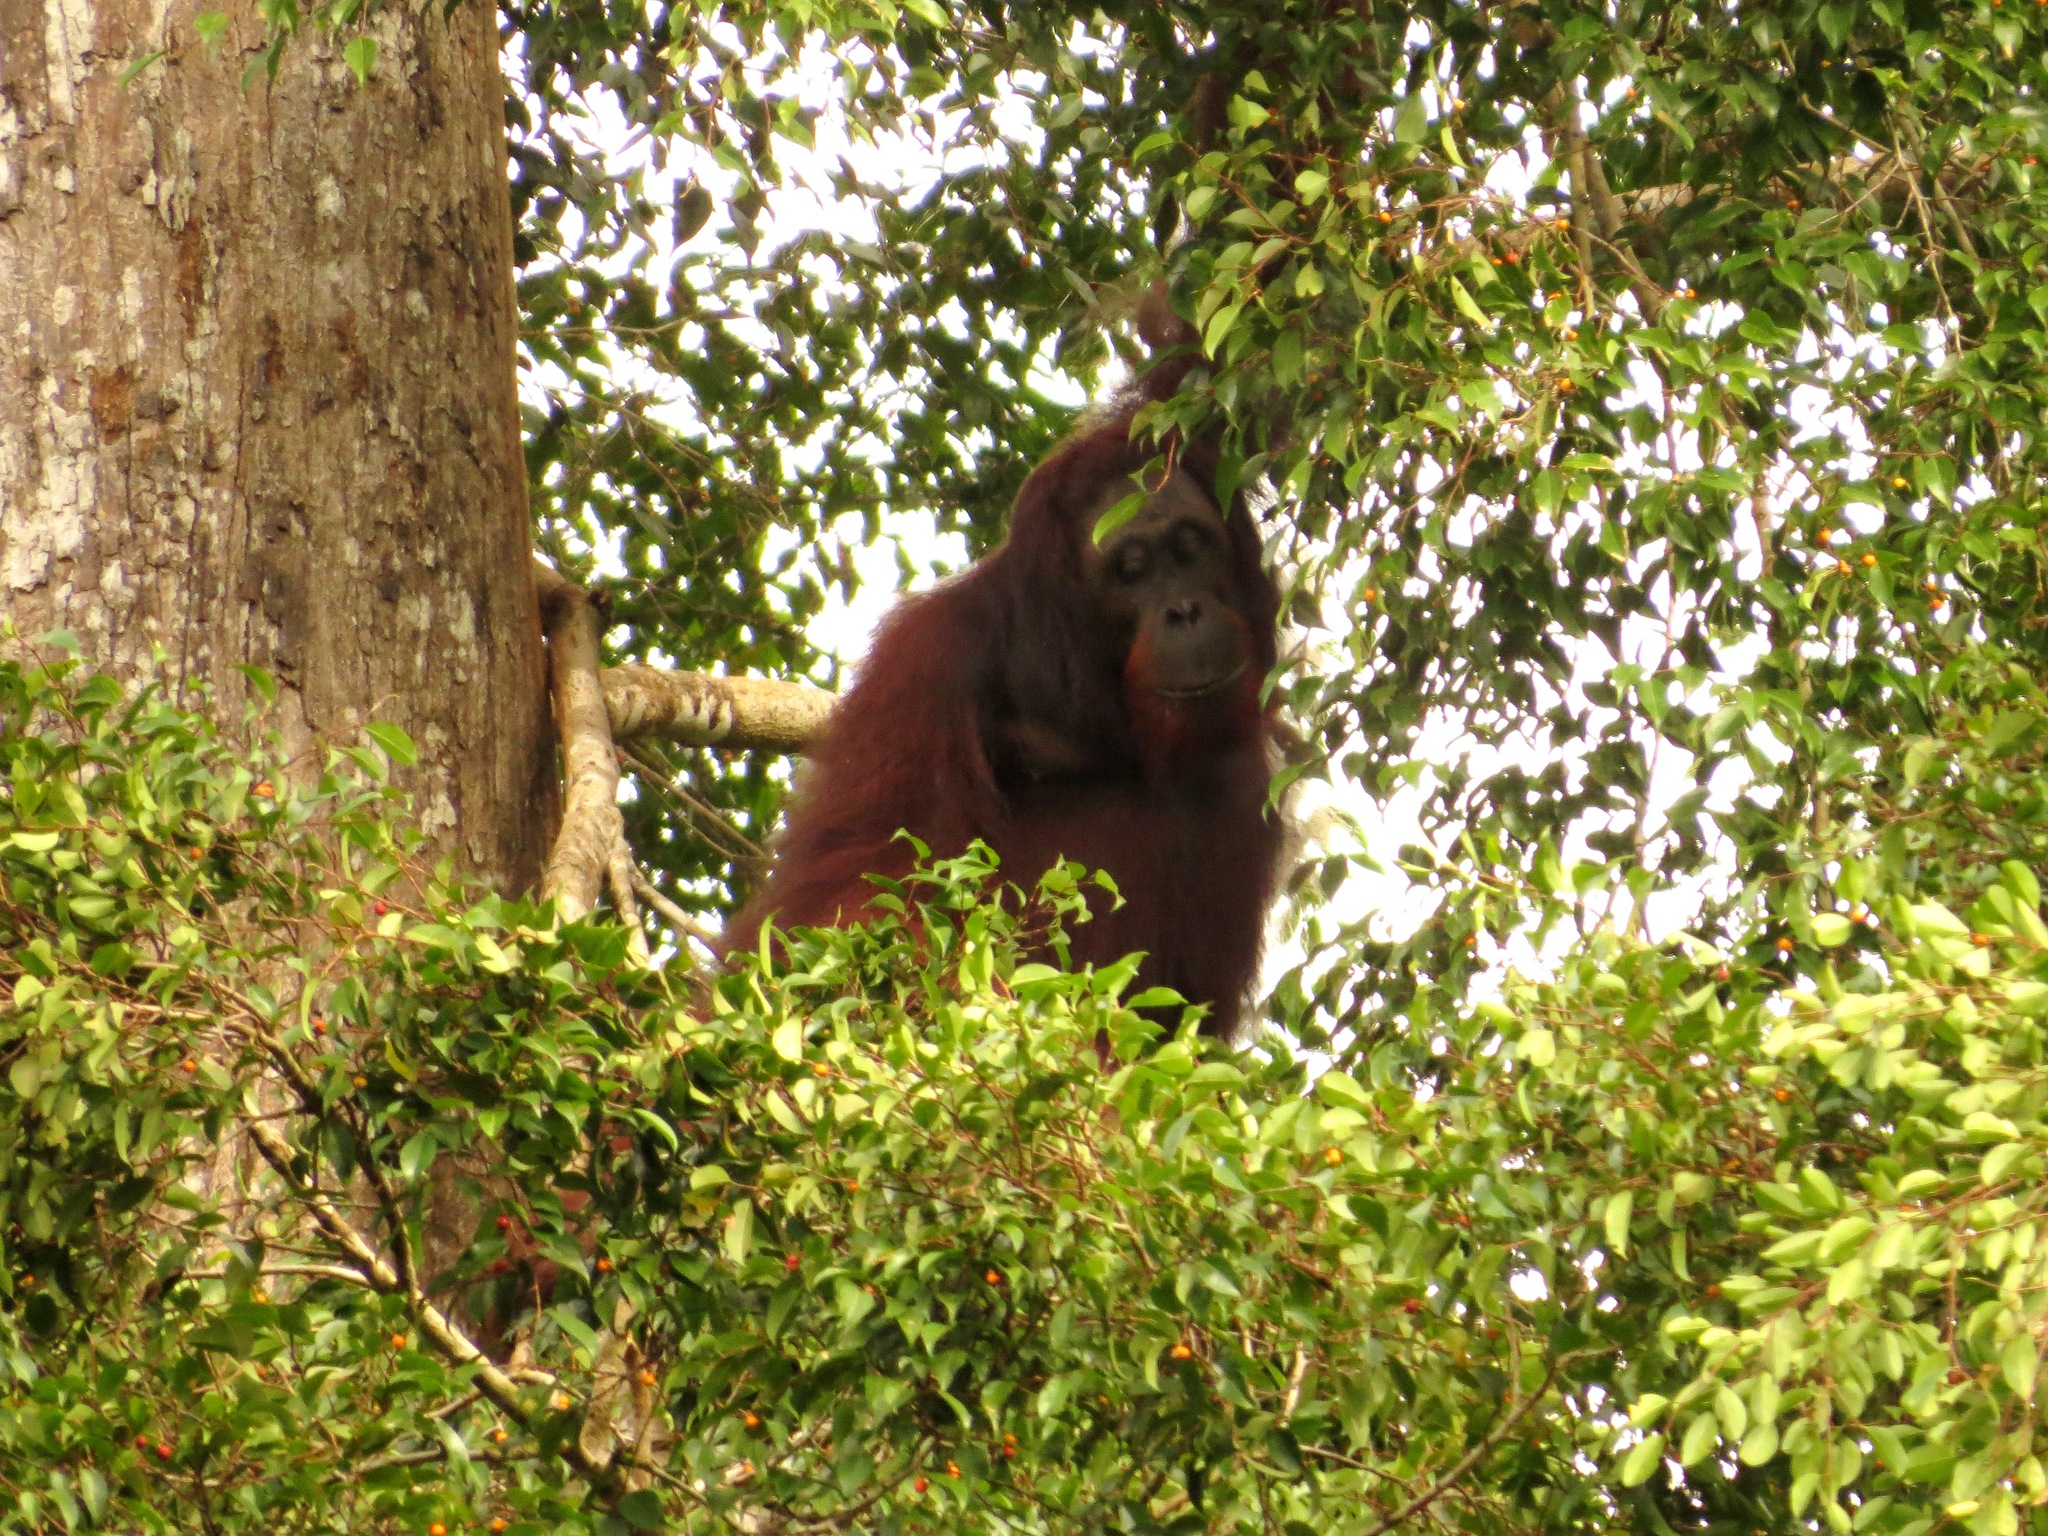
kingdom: Animalia
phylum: Chordata
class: Mammalia
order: Primates
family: Hominidae
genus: Pongo
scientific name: Pongo pygmaeus
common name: Bornean orangutan
